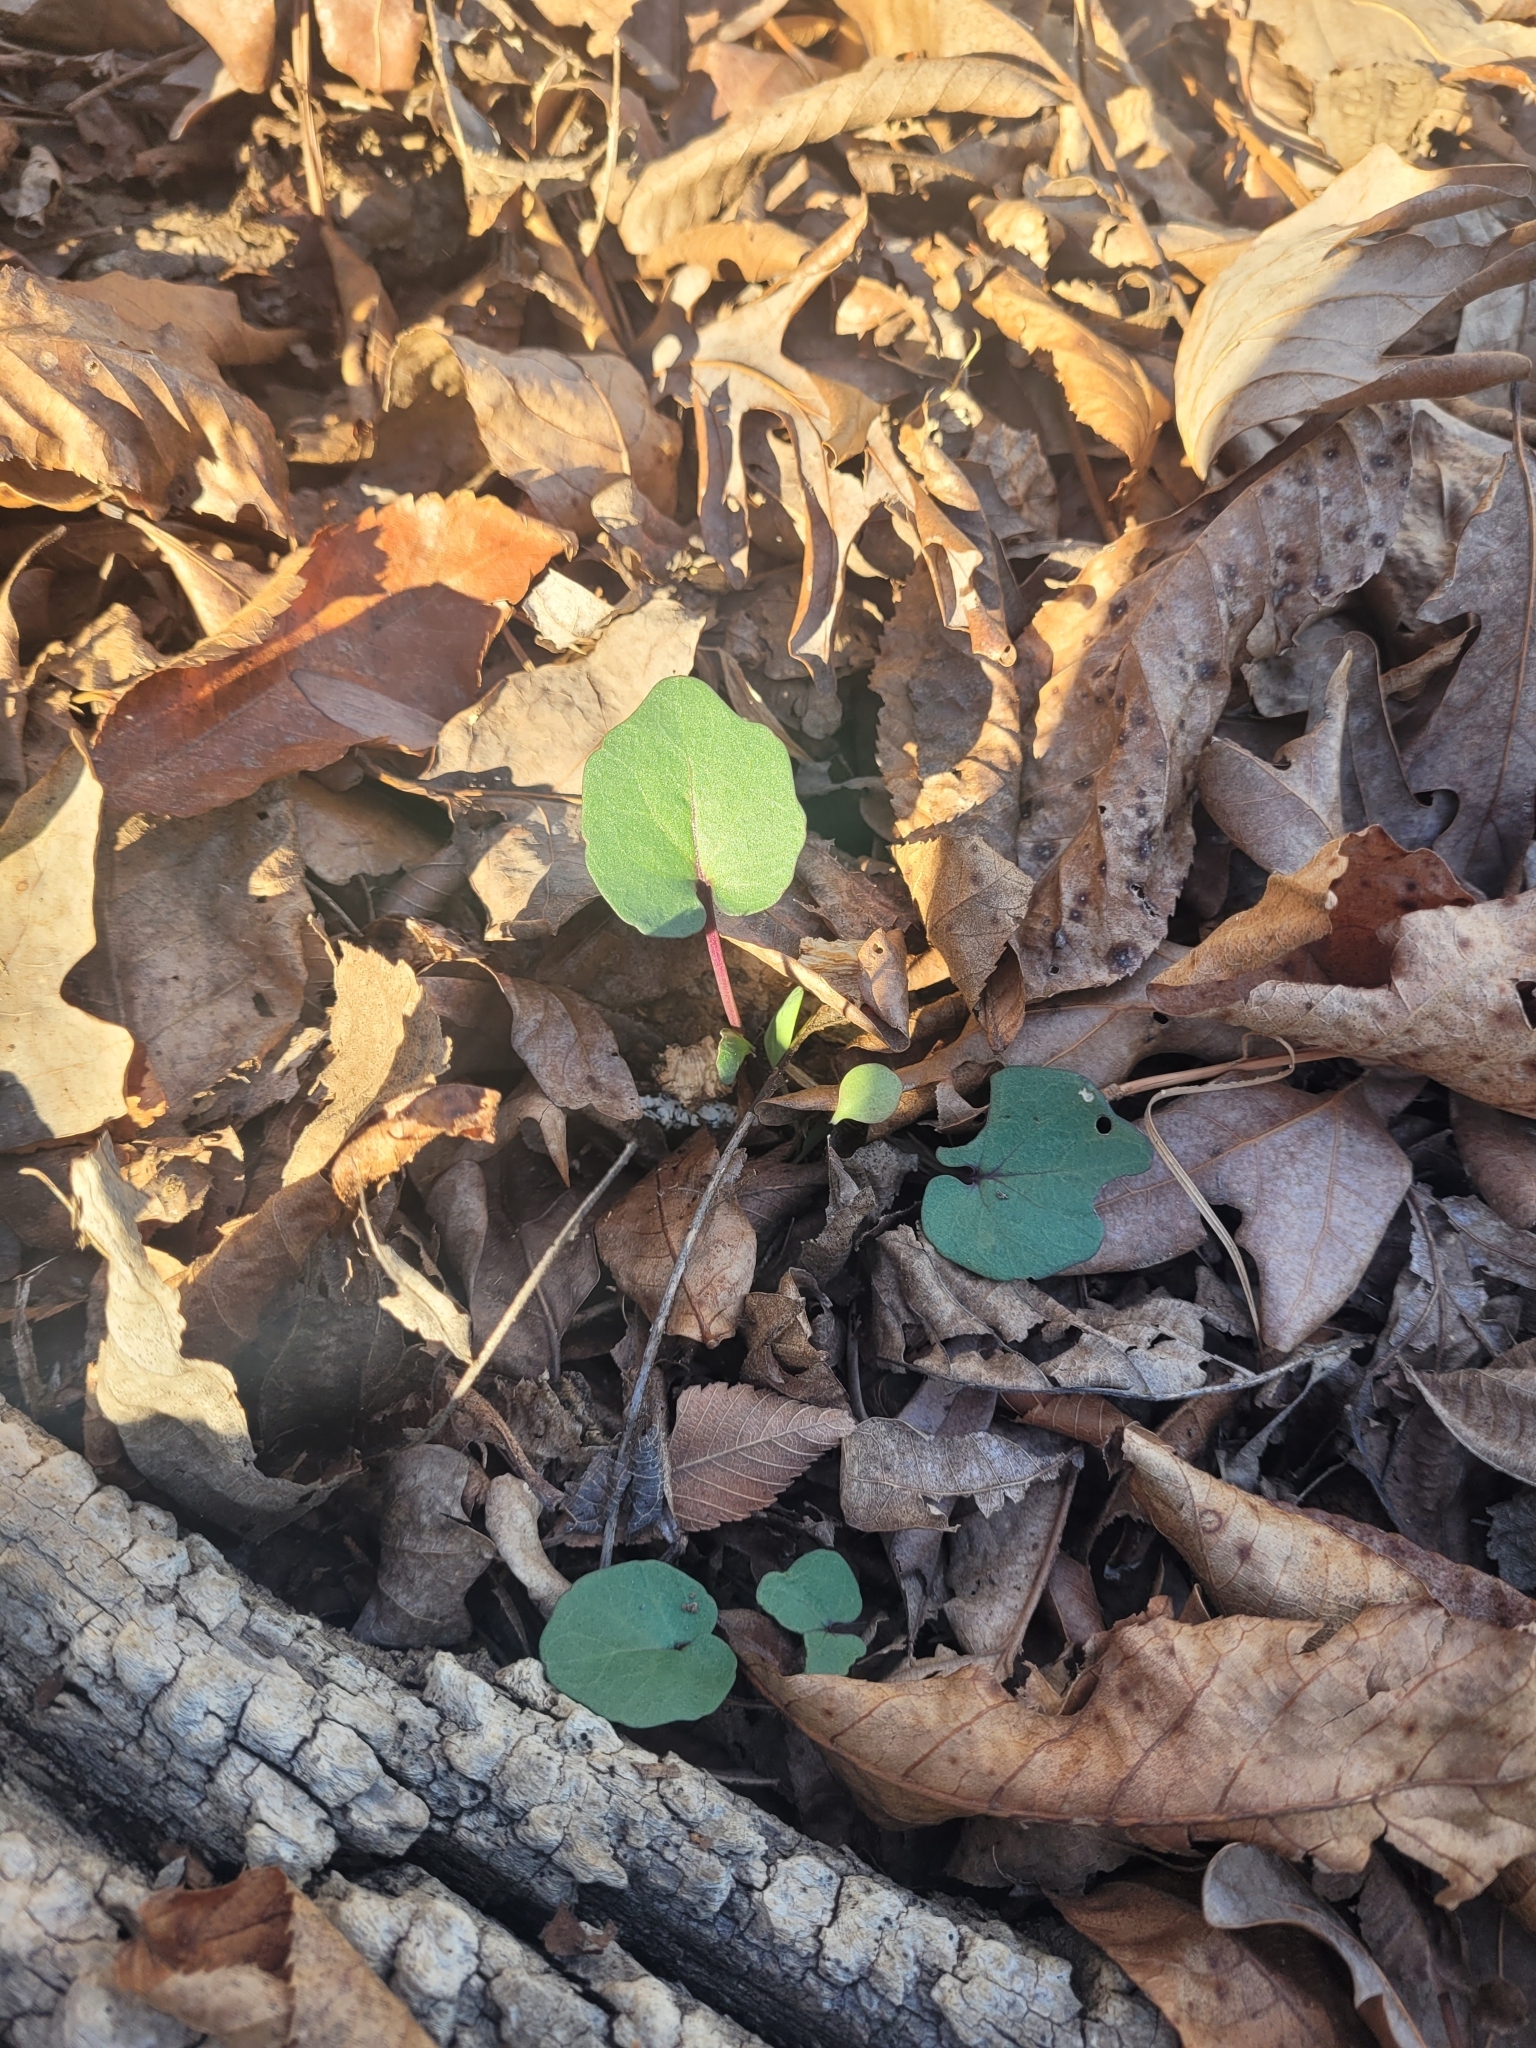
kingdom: Plantae
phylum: Tracheophyta
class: Magnoliopsida
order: Brassicales
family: Brassicaceae
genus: Cardamine
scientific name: Cardamine douglassii
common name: Purple cress
